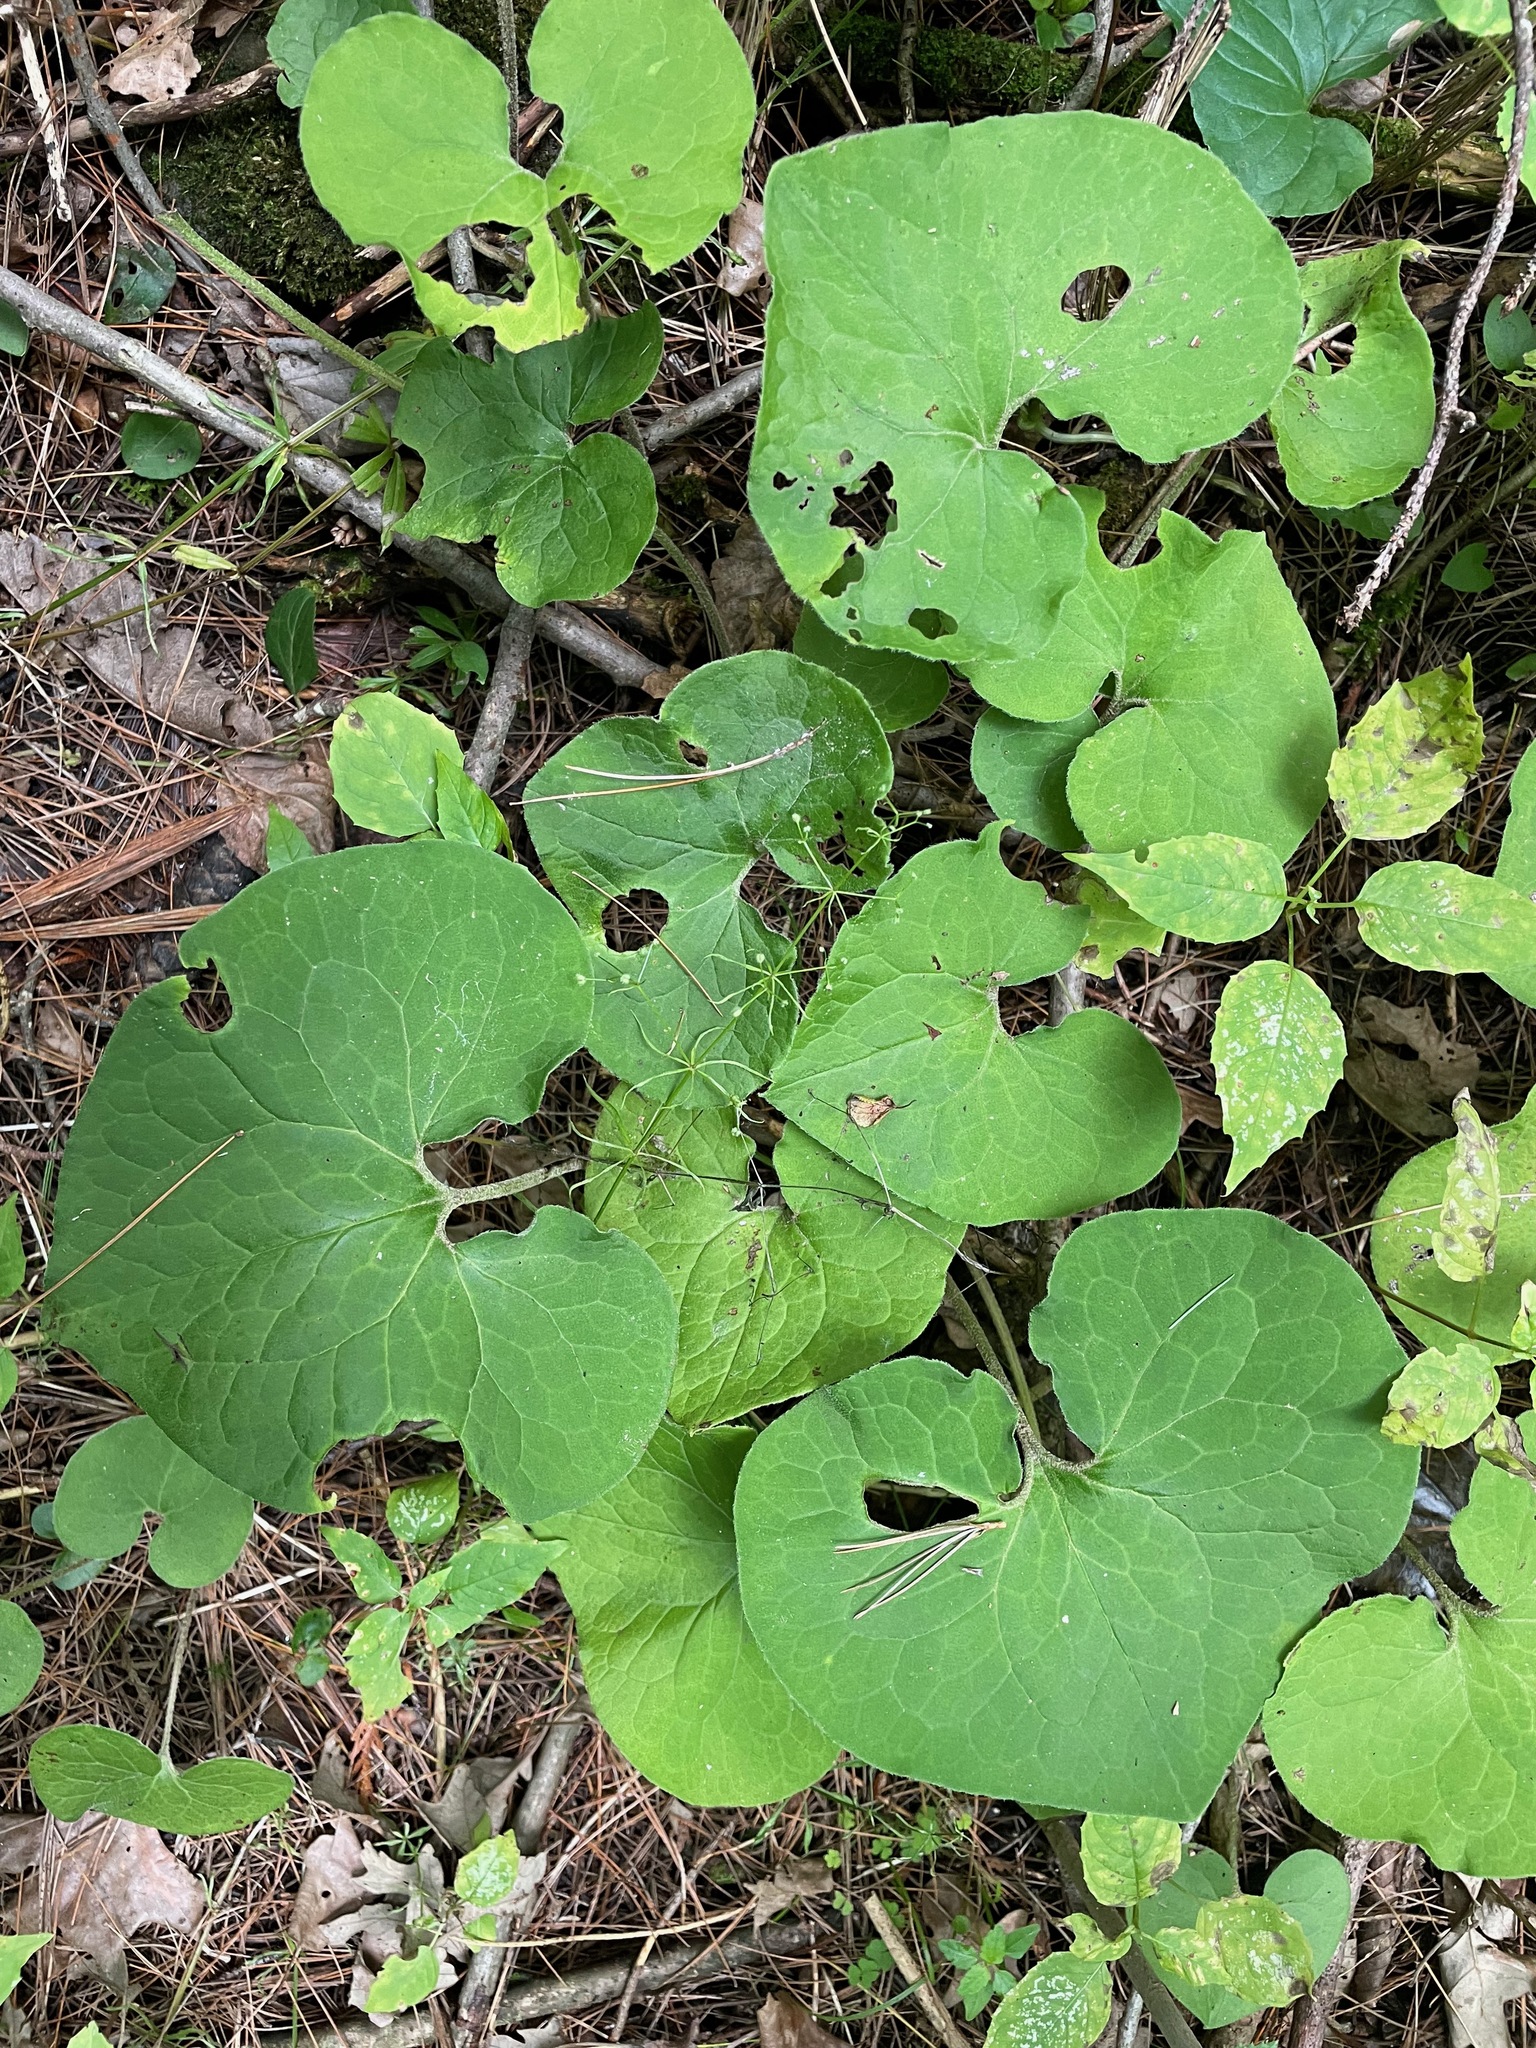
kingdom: Plantae
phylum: Tracheophyta
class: Magnoliopsida
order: Piperales
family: Aristolochiaceae
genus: Asarum
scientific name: Asarum canadense
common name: Wild ginger
